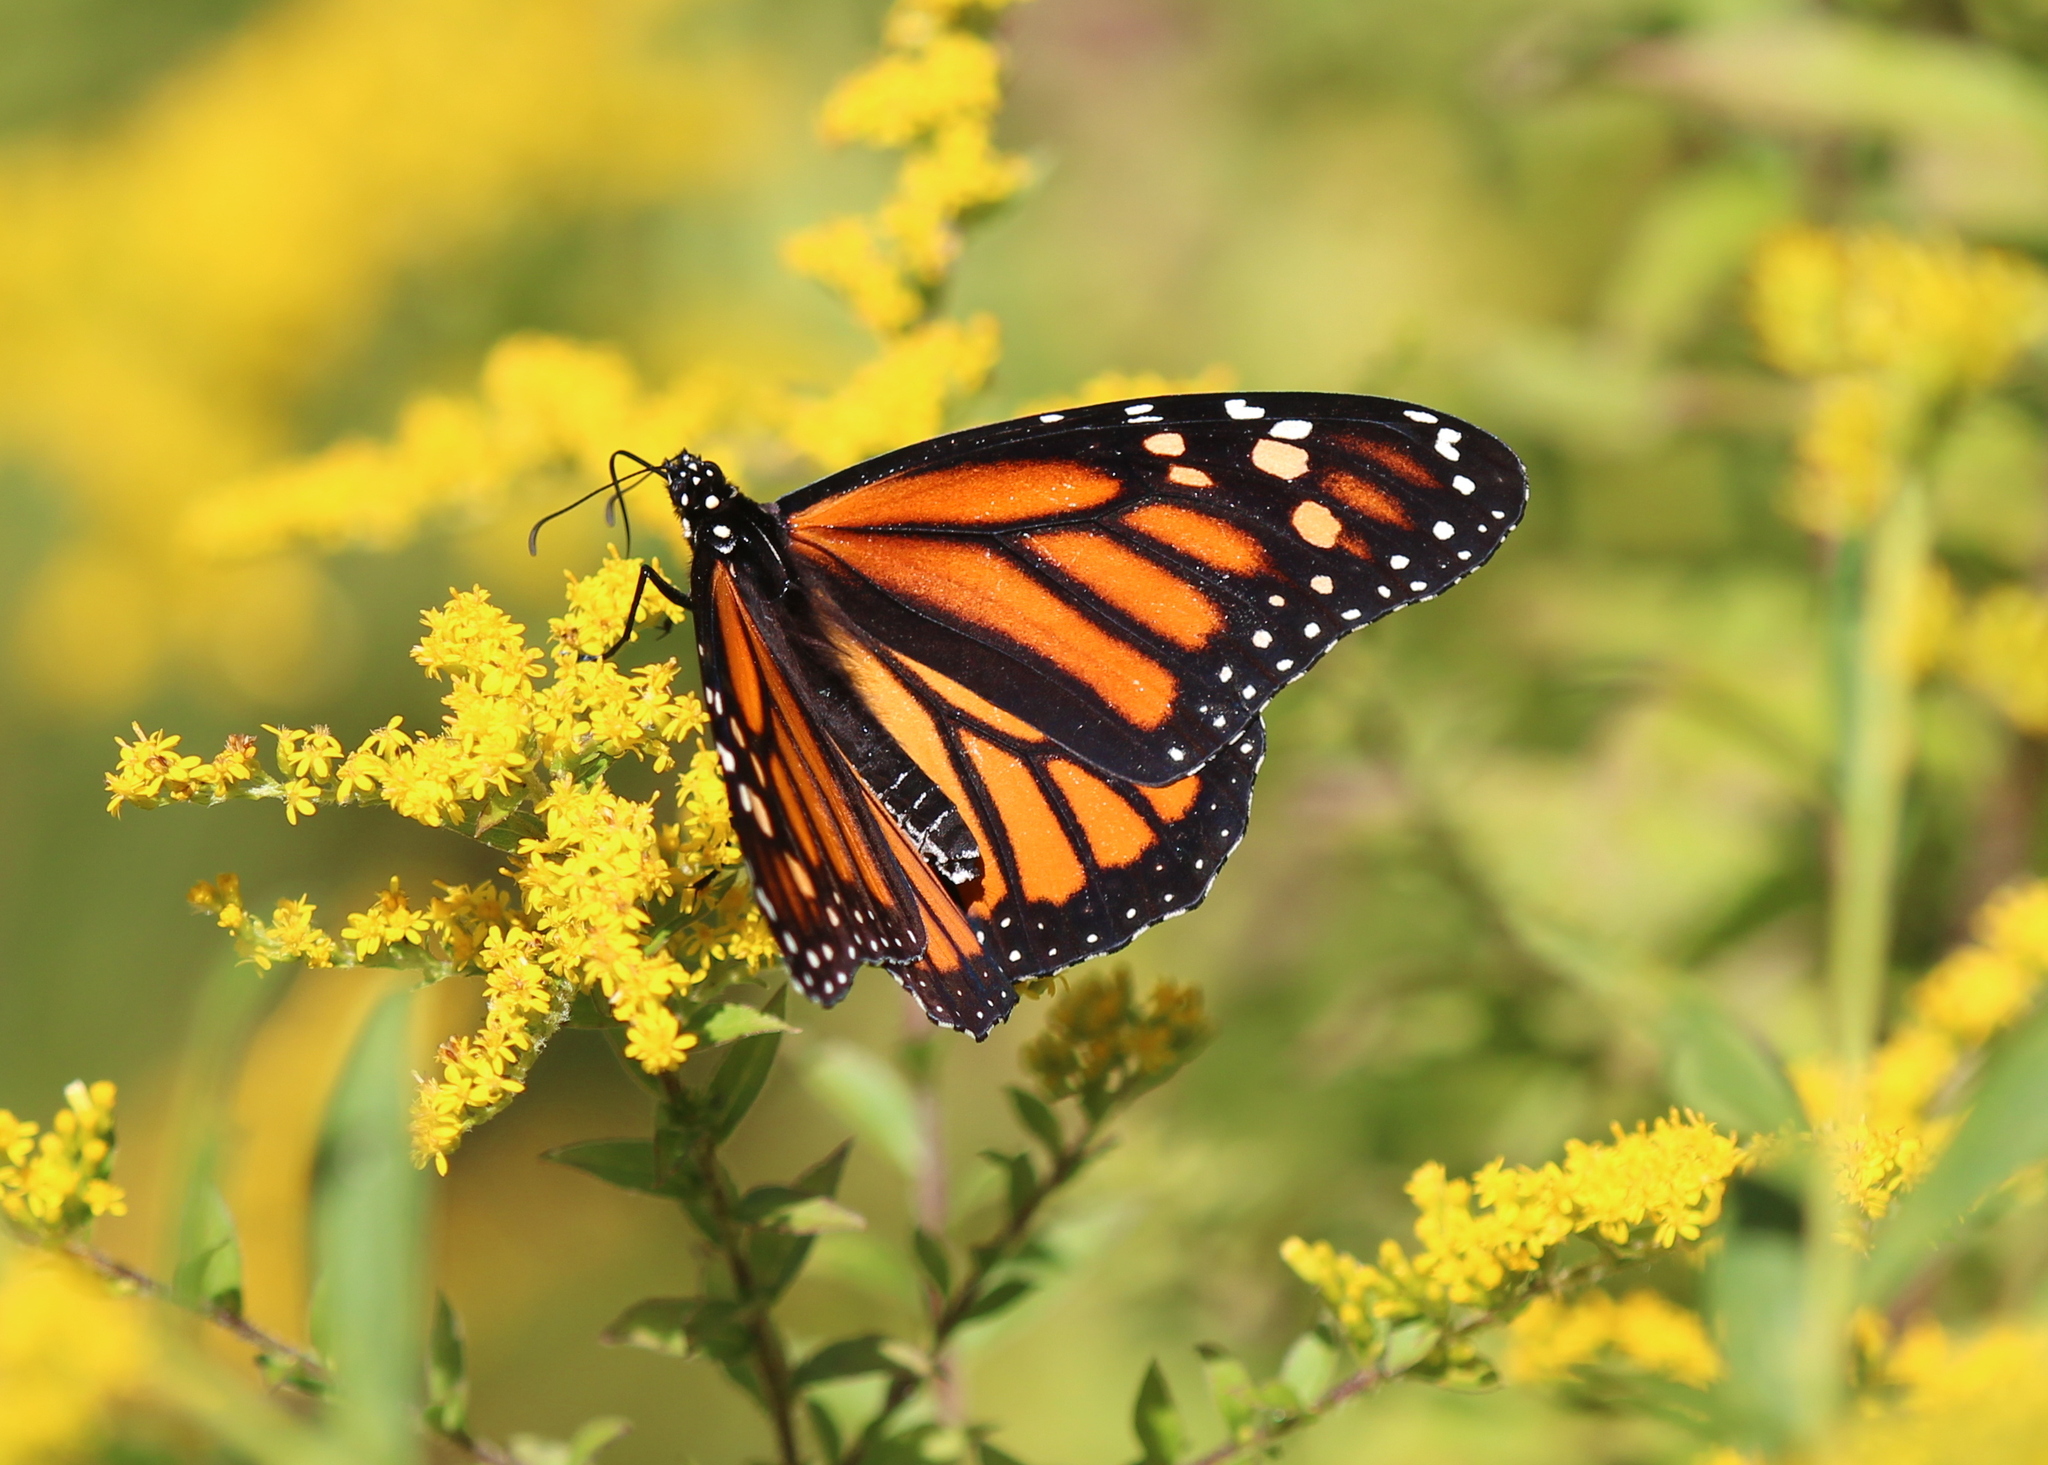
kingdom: Animalia
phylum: Arthropoda
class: Insecta
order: Lepidoptera
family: Nymphalidae
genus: Danaus
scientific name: Danaus plexippus
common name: Monarch
